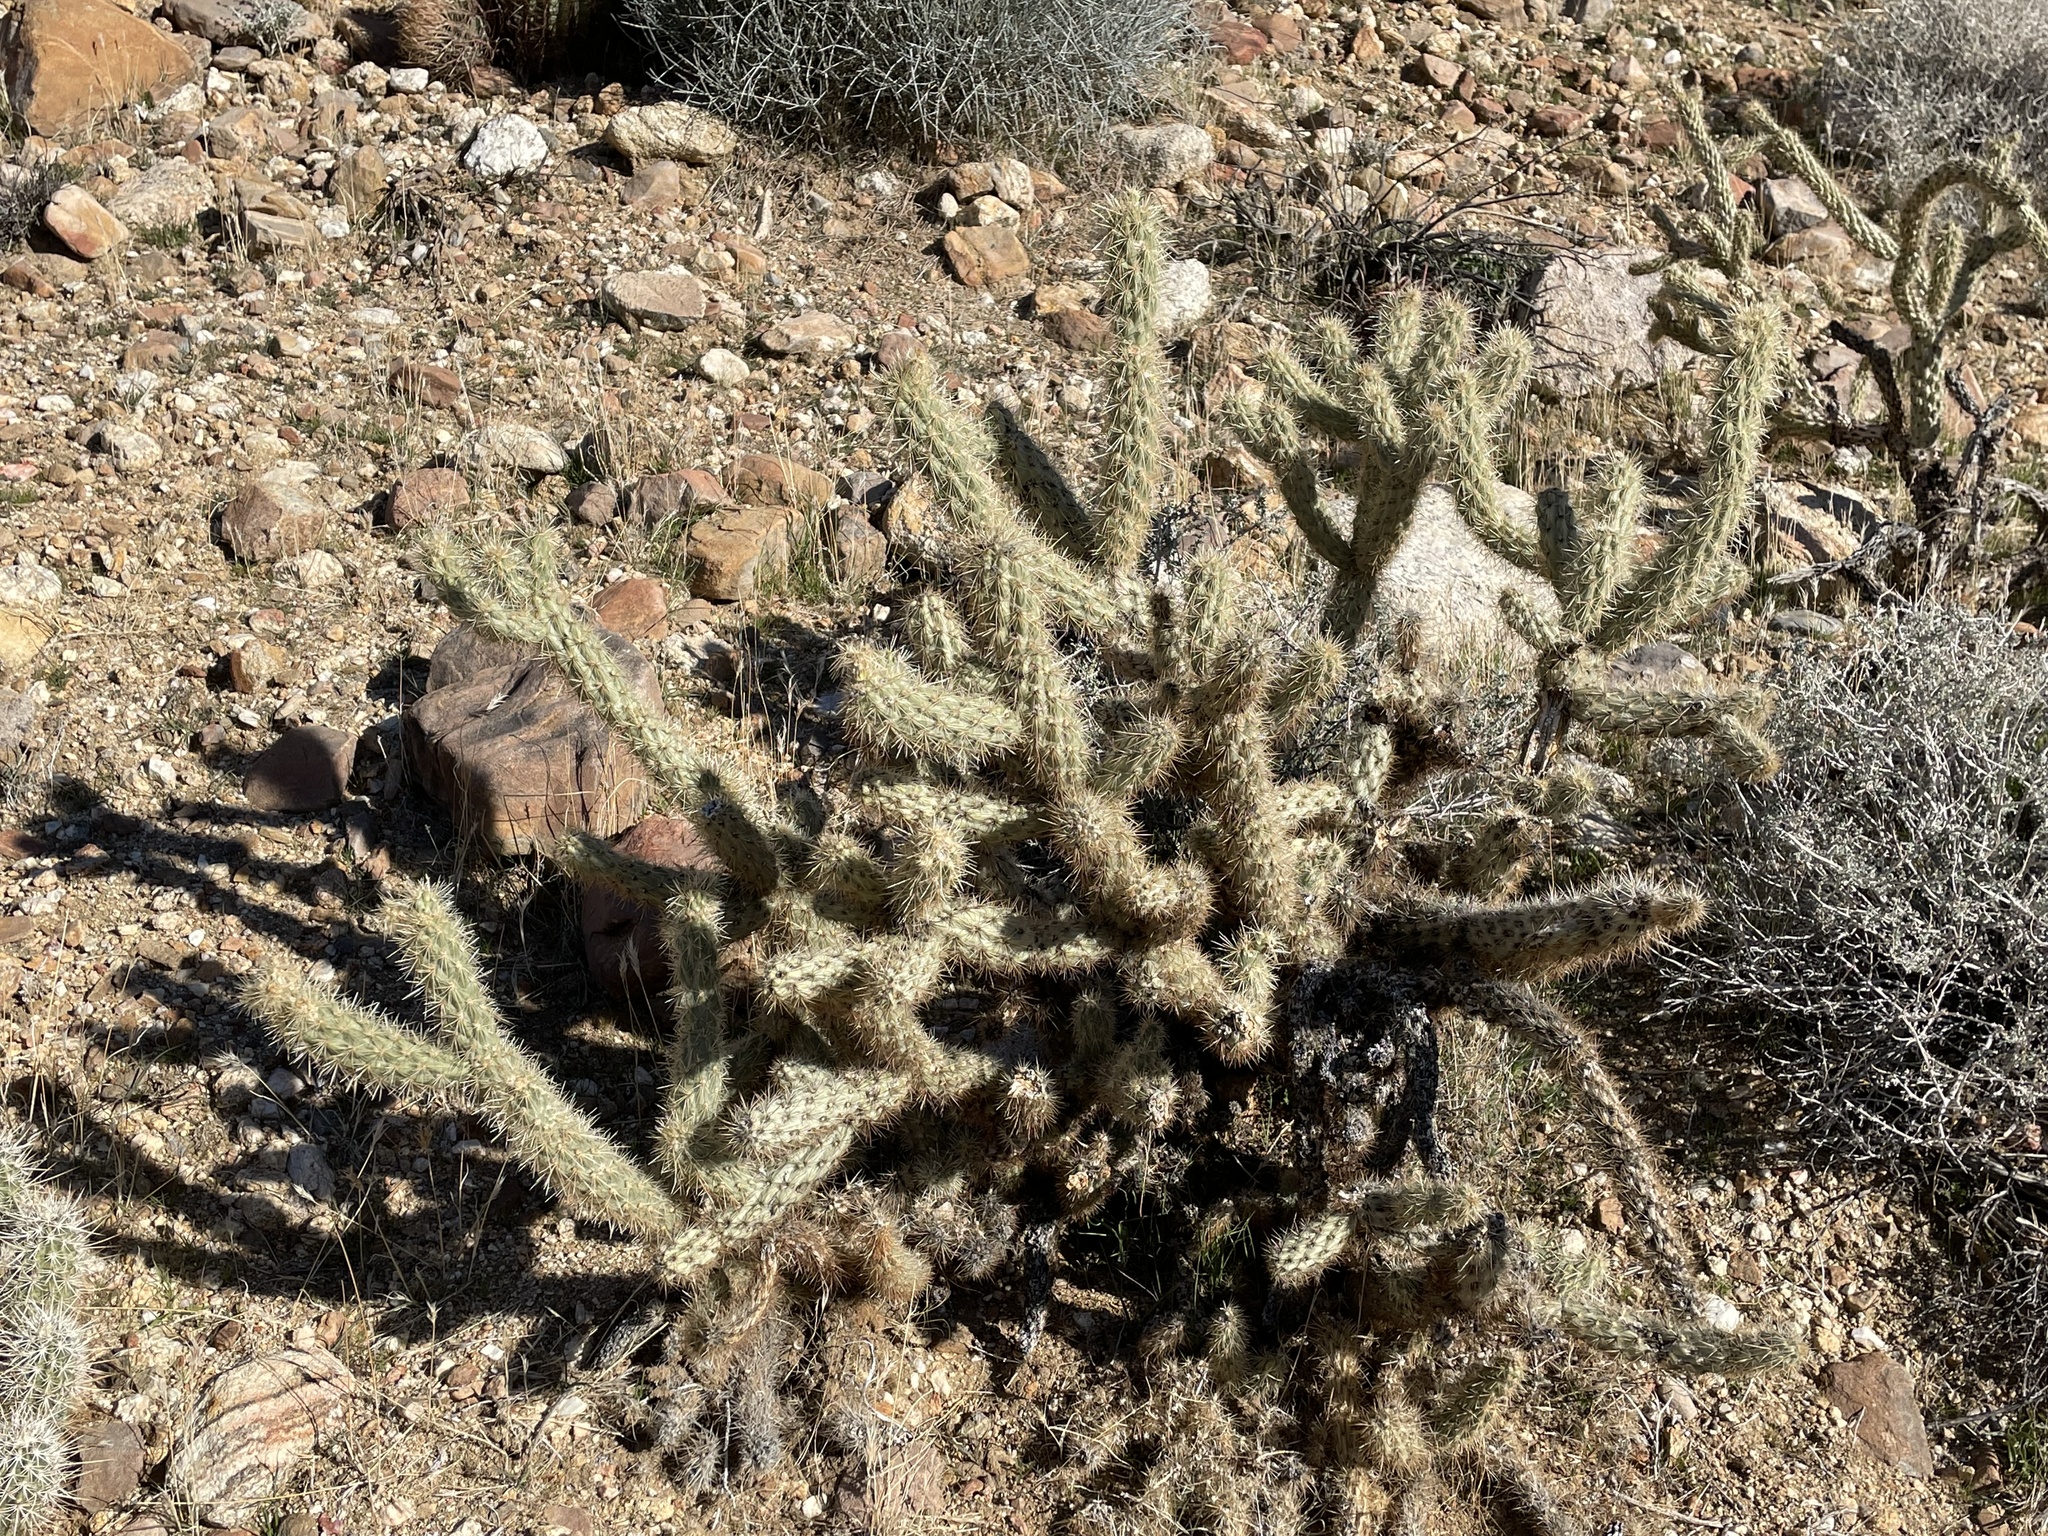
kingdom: Plantae
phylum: Tracheophyta
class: Magnoliopsida
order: Caryophyllales
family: Cactaceae
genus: Cylindropuntia
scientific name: Cylindropuntia ganderi
